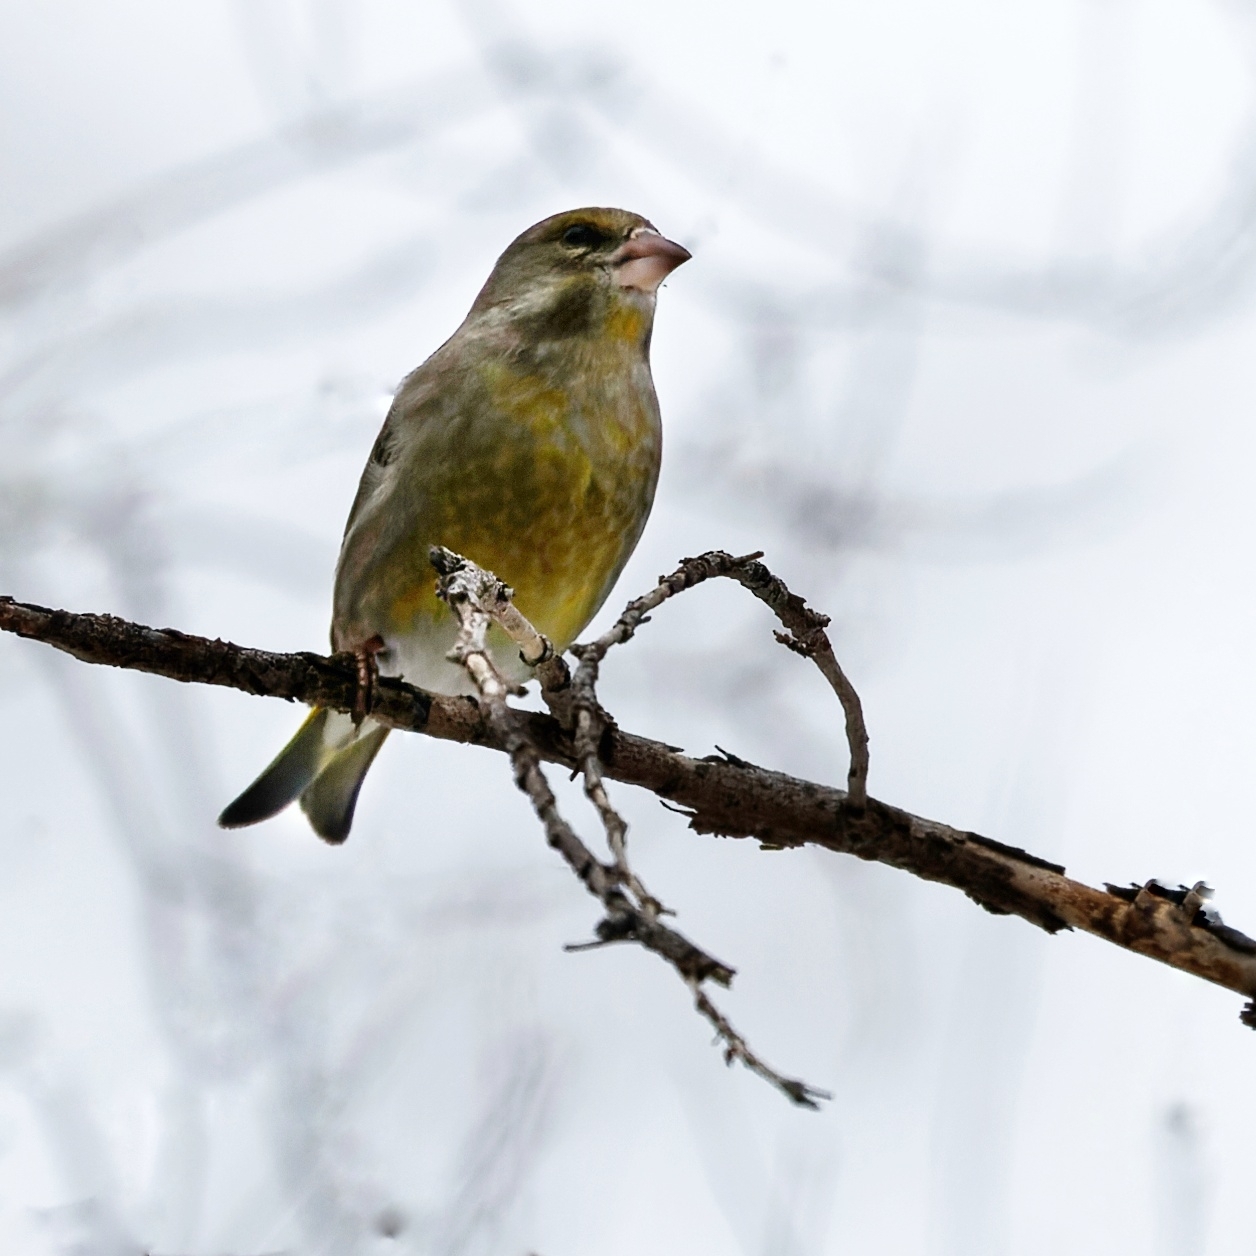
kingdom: Plantae
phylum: Tracheophyta
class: Liliopsida
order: Poales
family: Poaceae
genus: Chloris
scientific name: Chloris chloris
